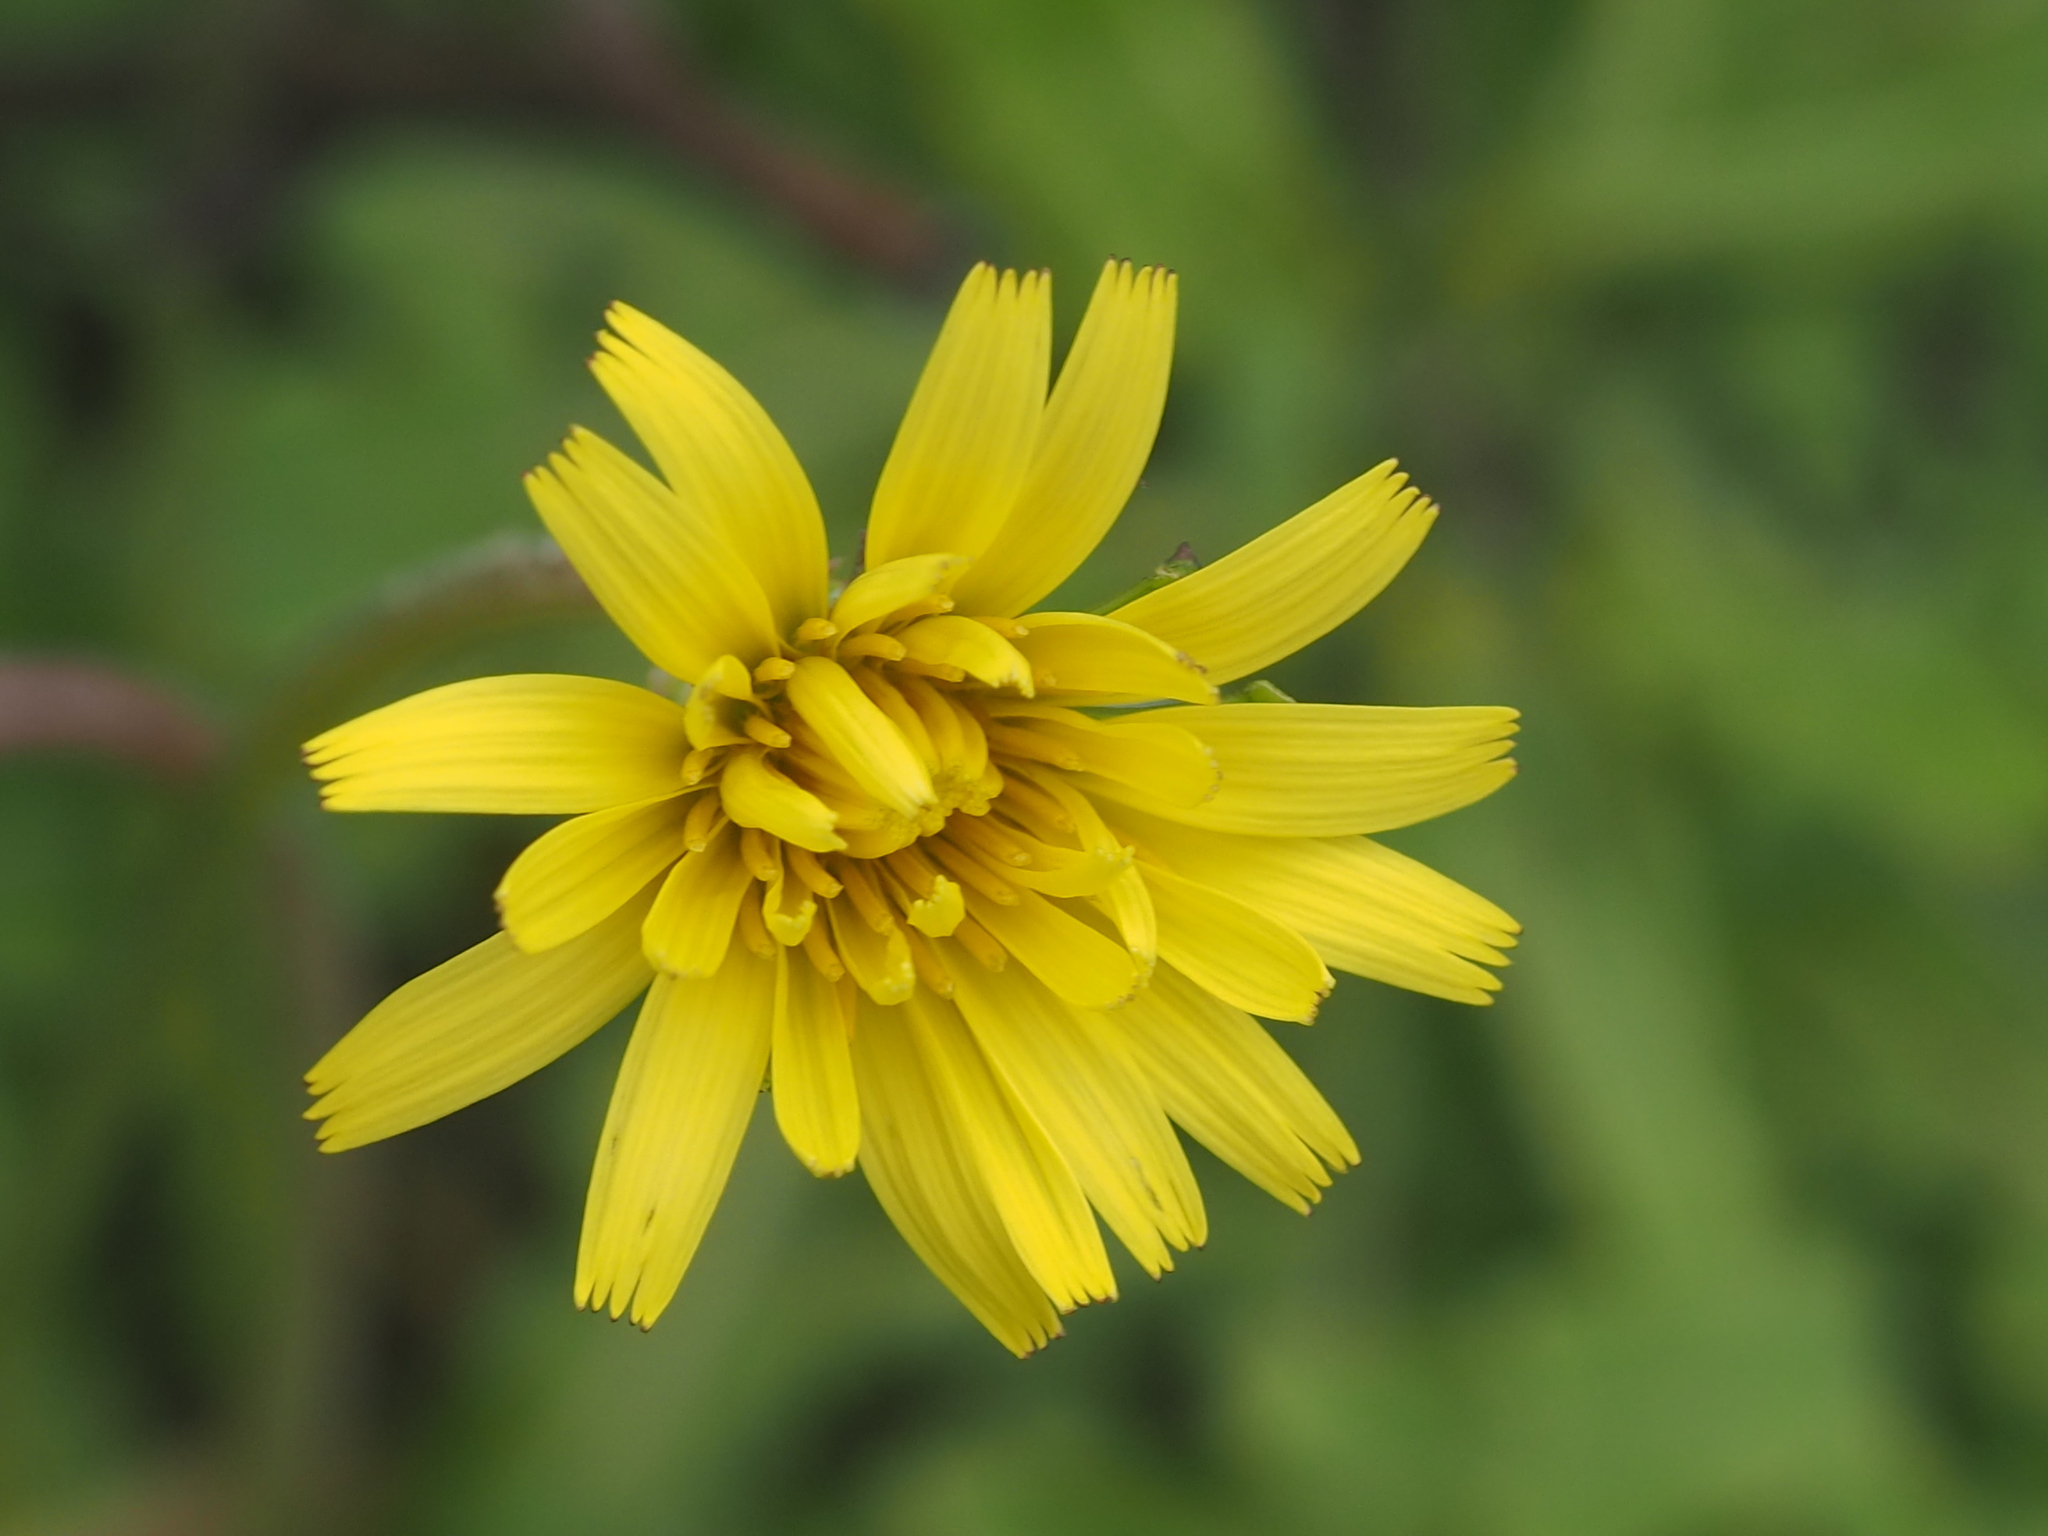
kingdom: Plantae
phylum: Tracheophyta
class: Magnoliopsida
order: Asterales
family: Asteraceae
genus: Taraxacum
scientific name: Taraxacum formosanum
